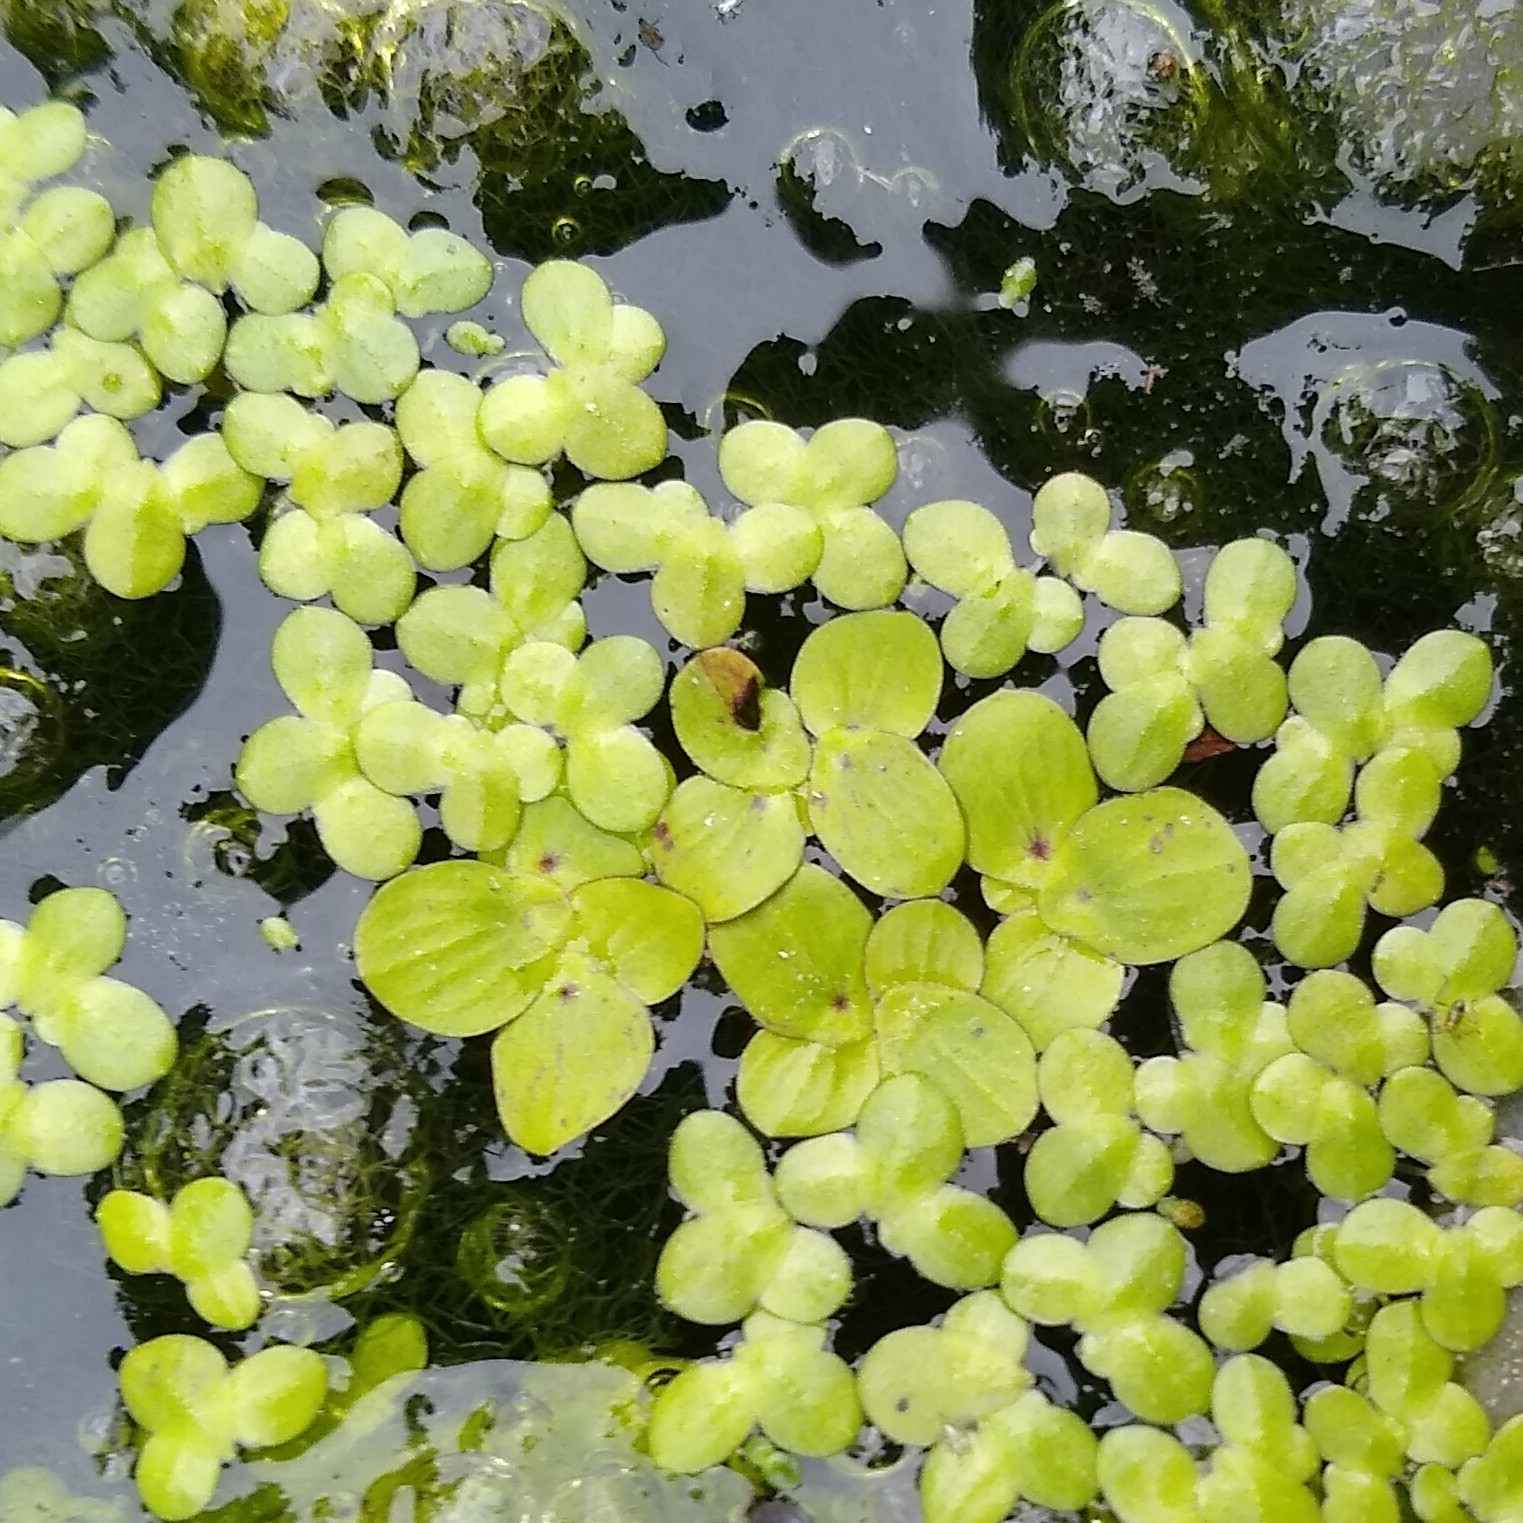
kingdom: Plantae
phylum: Tracheophyta
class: Liliopsida
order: Alismatales
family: Araceae
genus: Spirodela
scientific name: Spirodela polyrhiza
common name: Great duckweed
